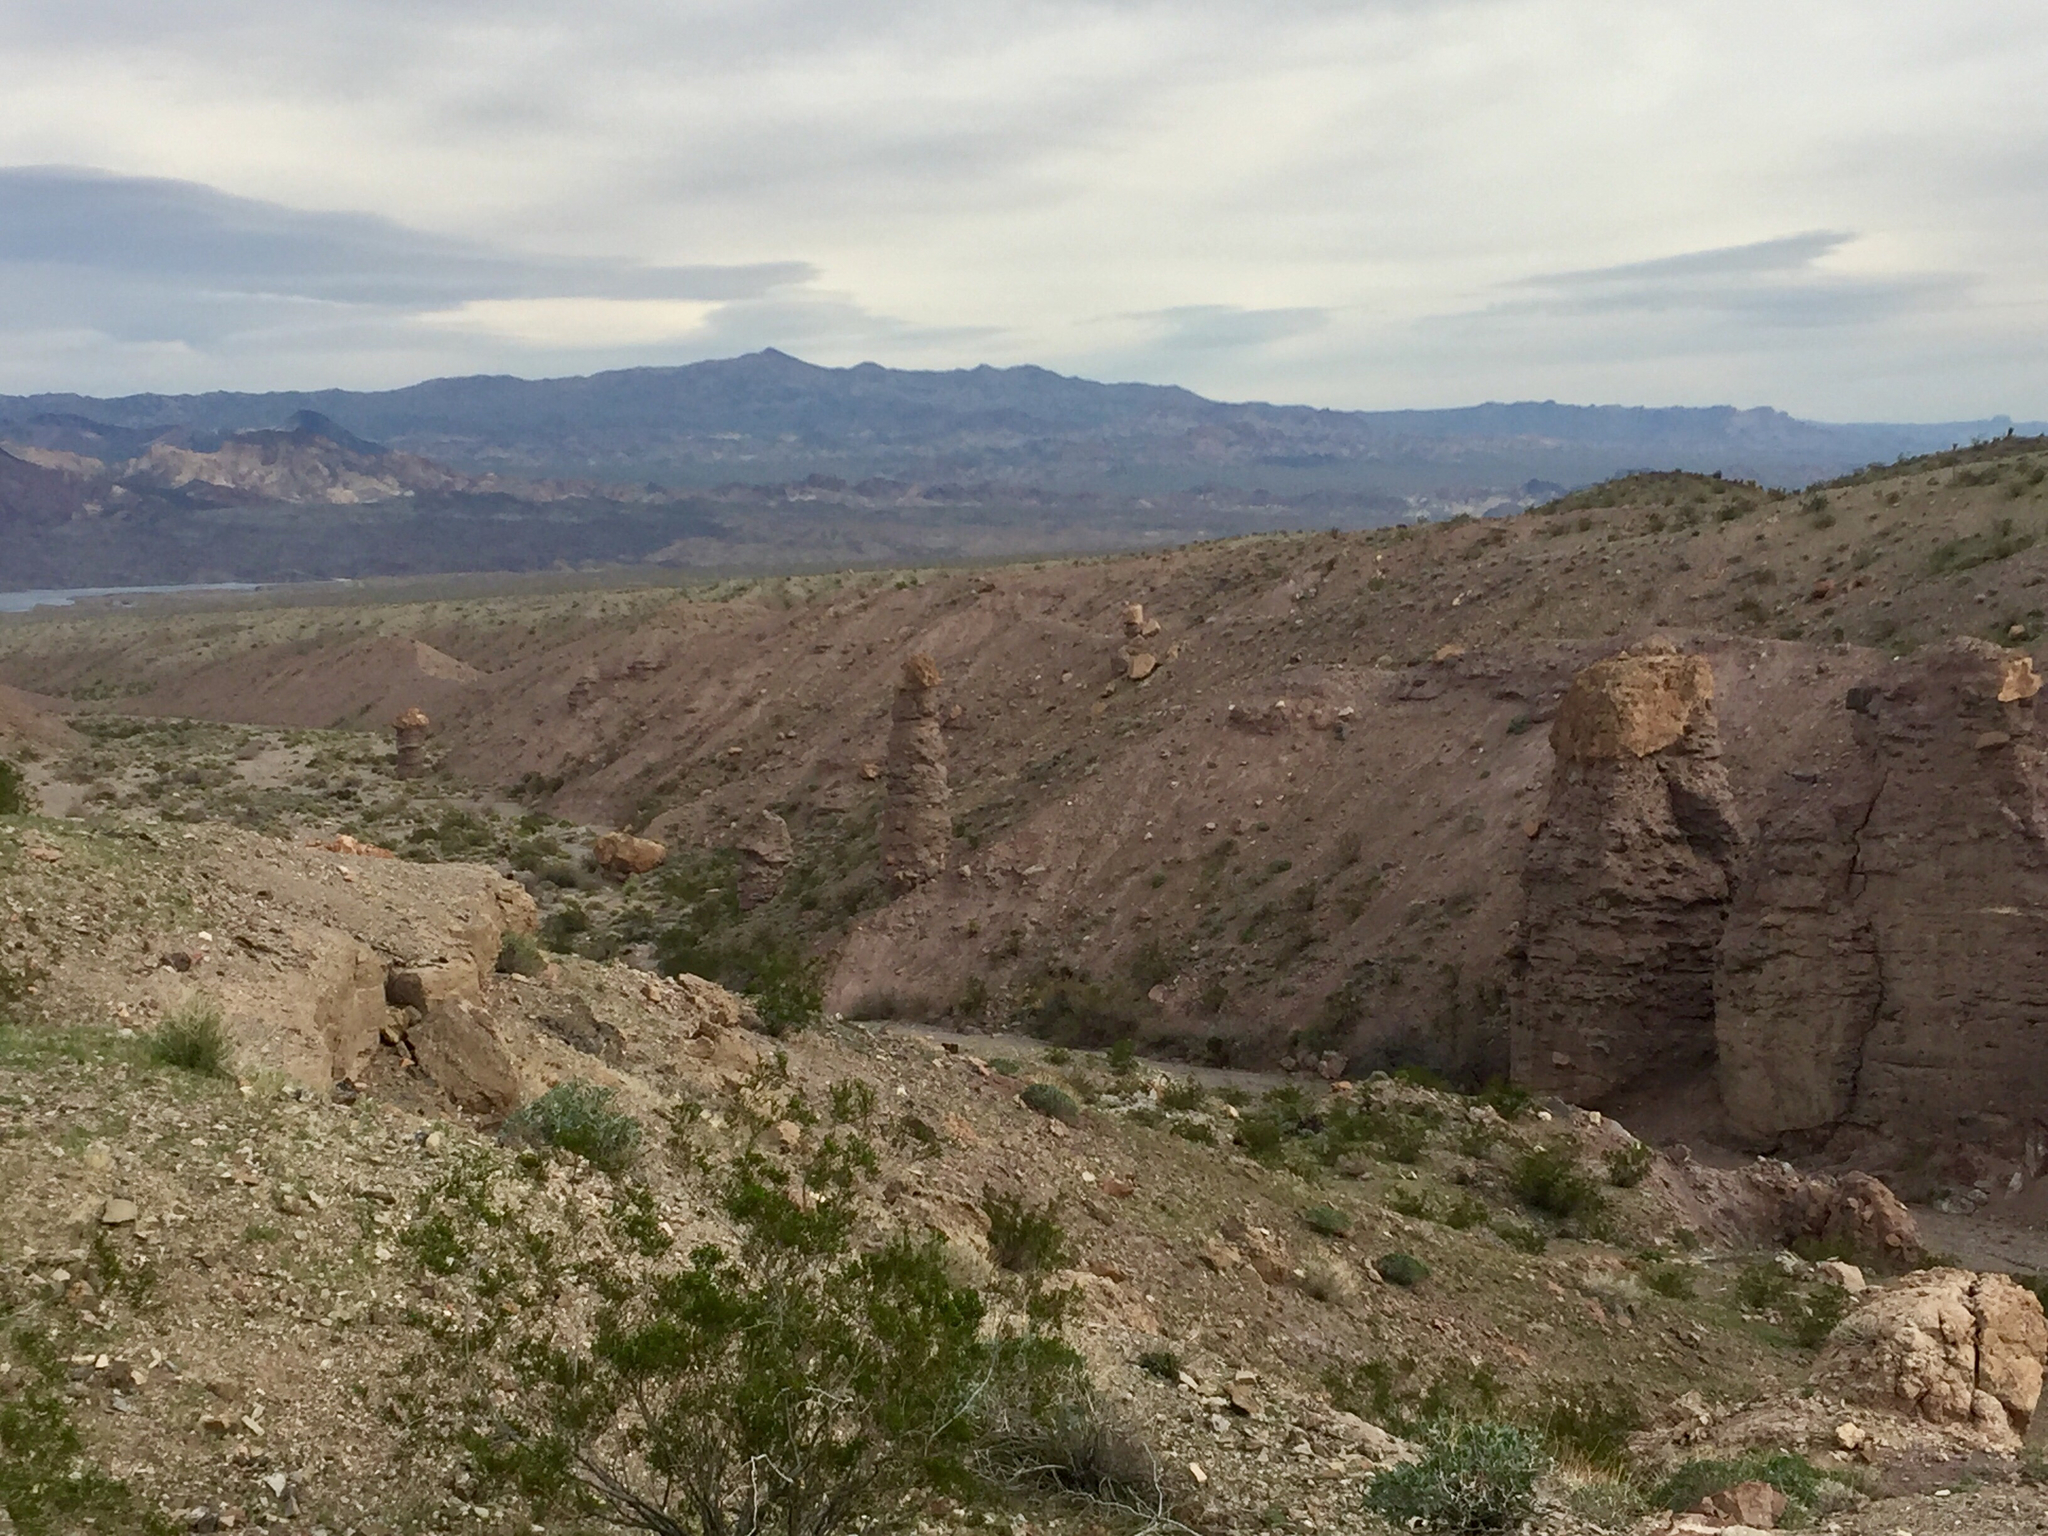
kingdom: Plantae
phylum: Tracheophyta
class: Magnoliopsida
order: Zygophyllales
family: Zygophyllaceae
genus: Larrea
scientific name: Larrea tridentata
